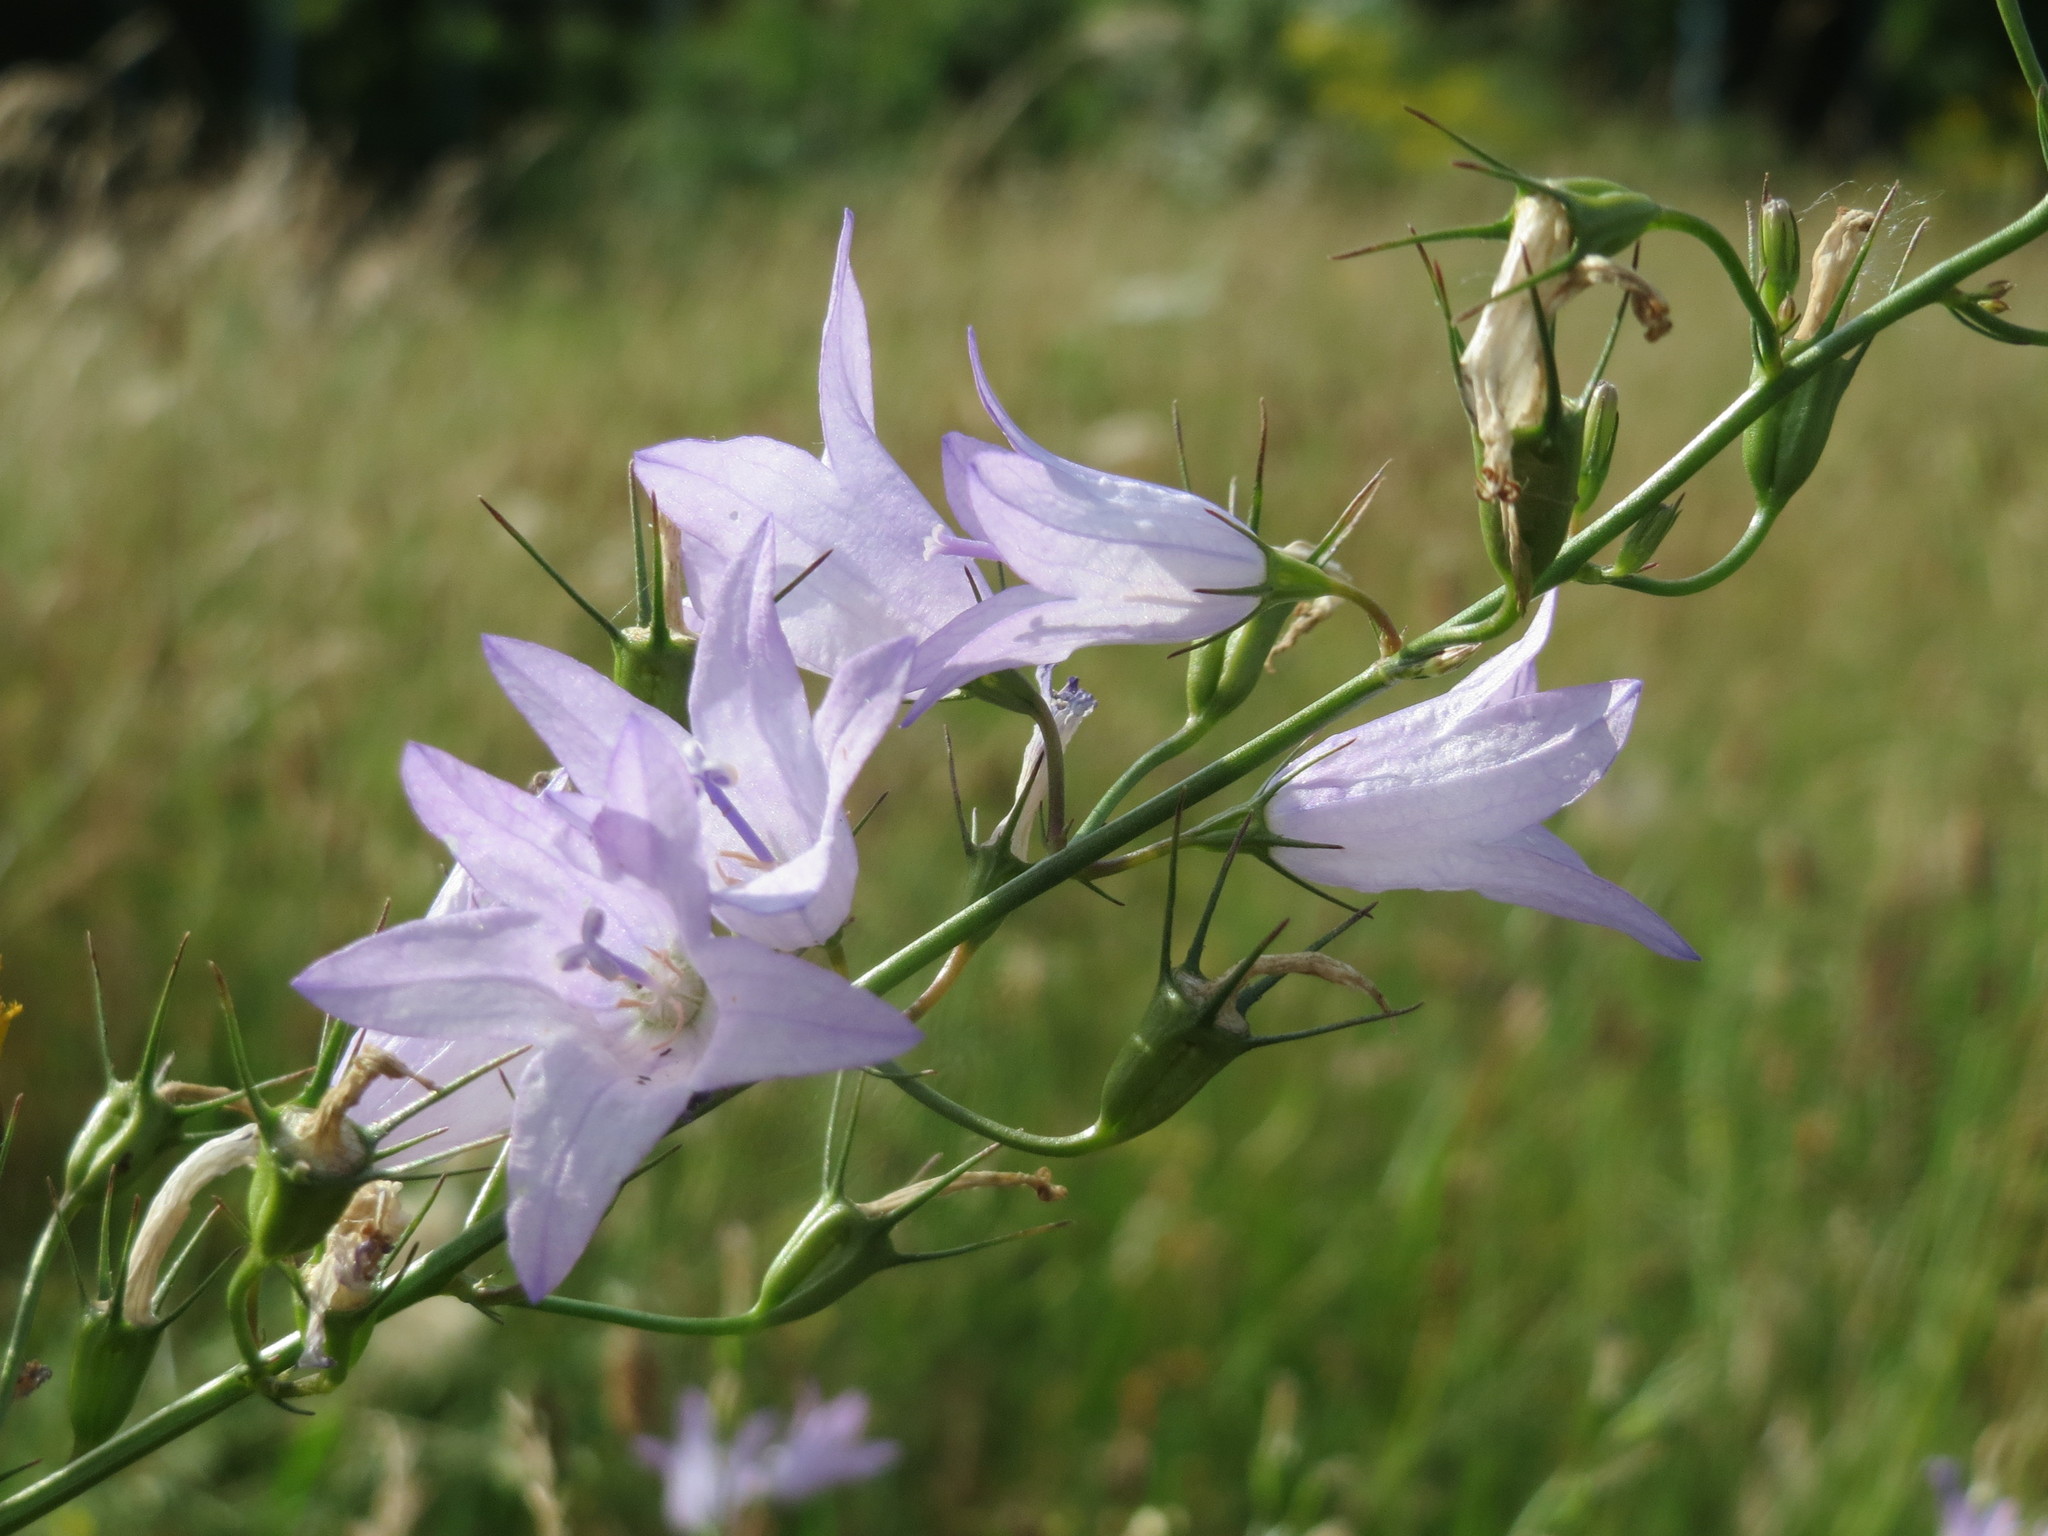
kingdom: Plantae
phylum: Tracheophyta
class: Magnoliopsida
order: Asterales
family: Campanulaceae
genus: Campanula
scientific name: Campanula rapunculus
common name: Rampion bellflower
